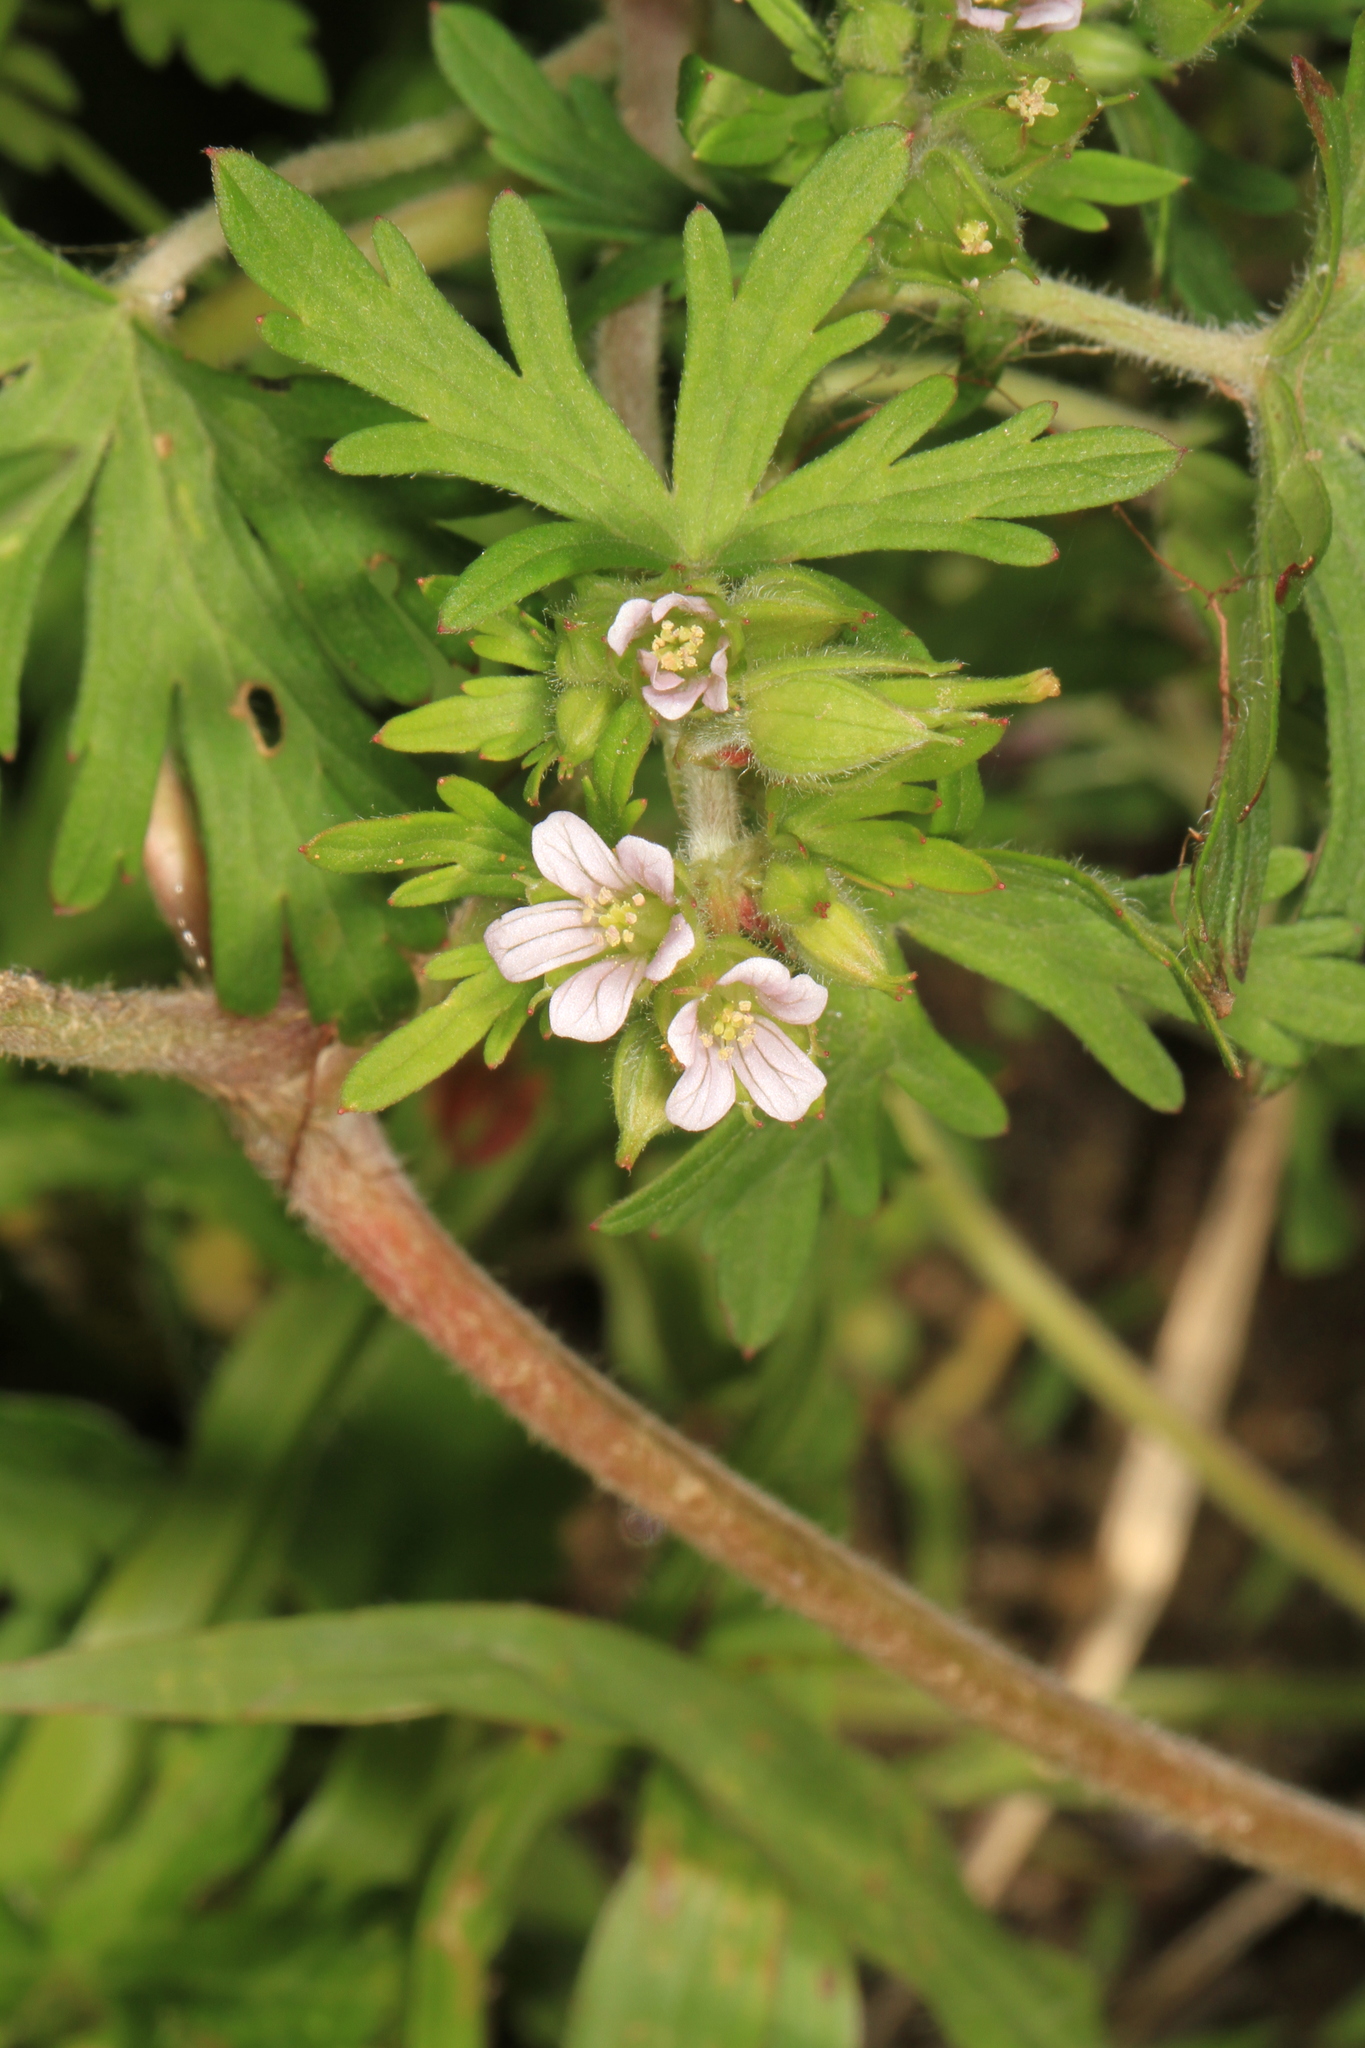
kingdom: Plantae
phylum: Tracheophyta
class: Magnoliopsida
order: Geraniales
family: Geraniaceae
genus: Geranium
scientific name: Geranium carolinianum
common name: Carolina crane's-bill
